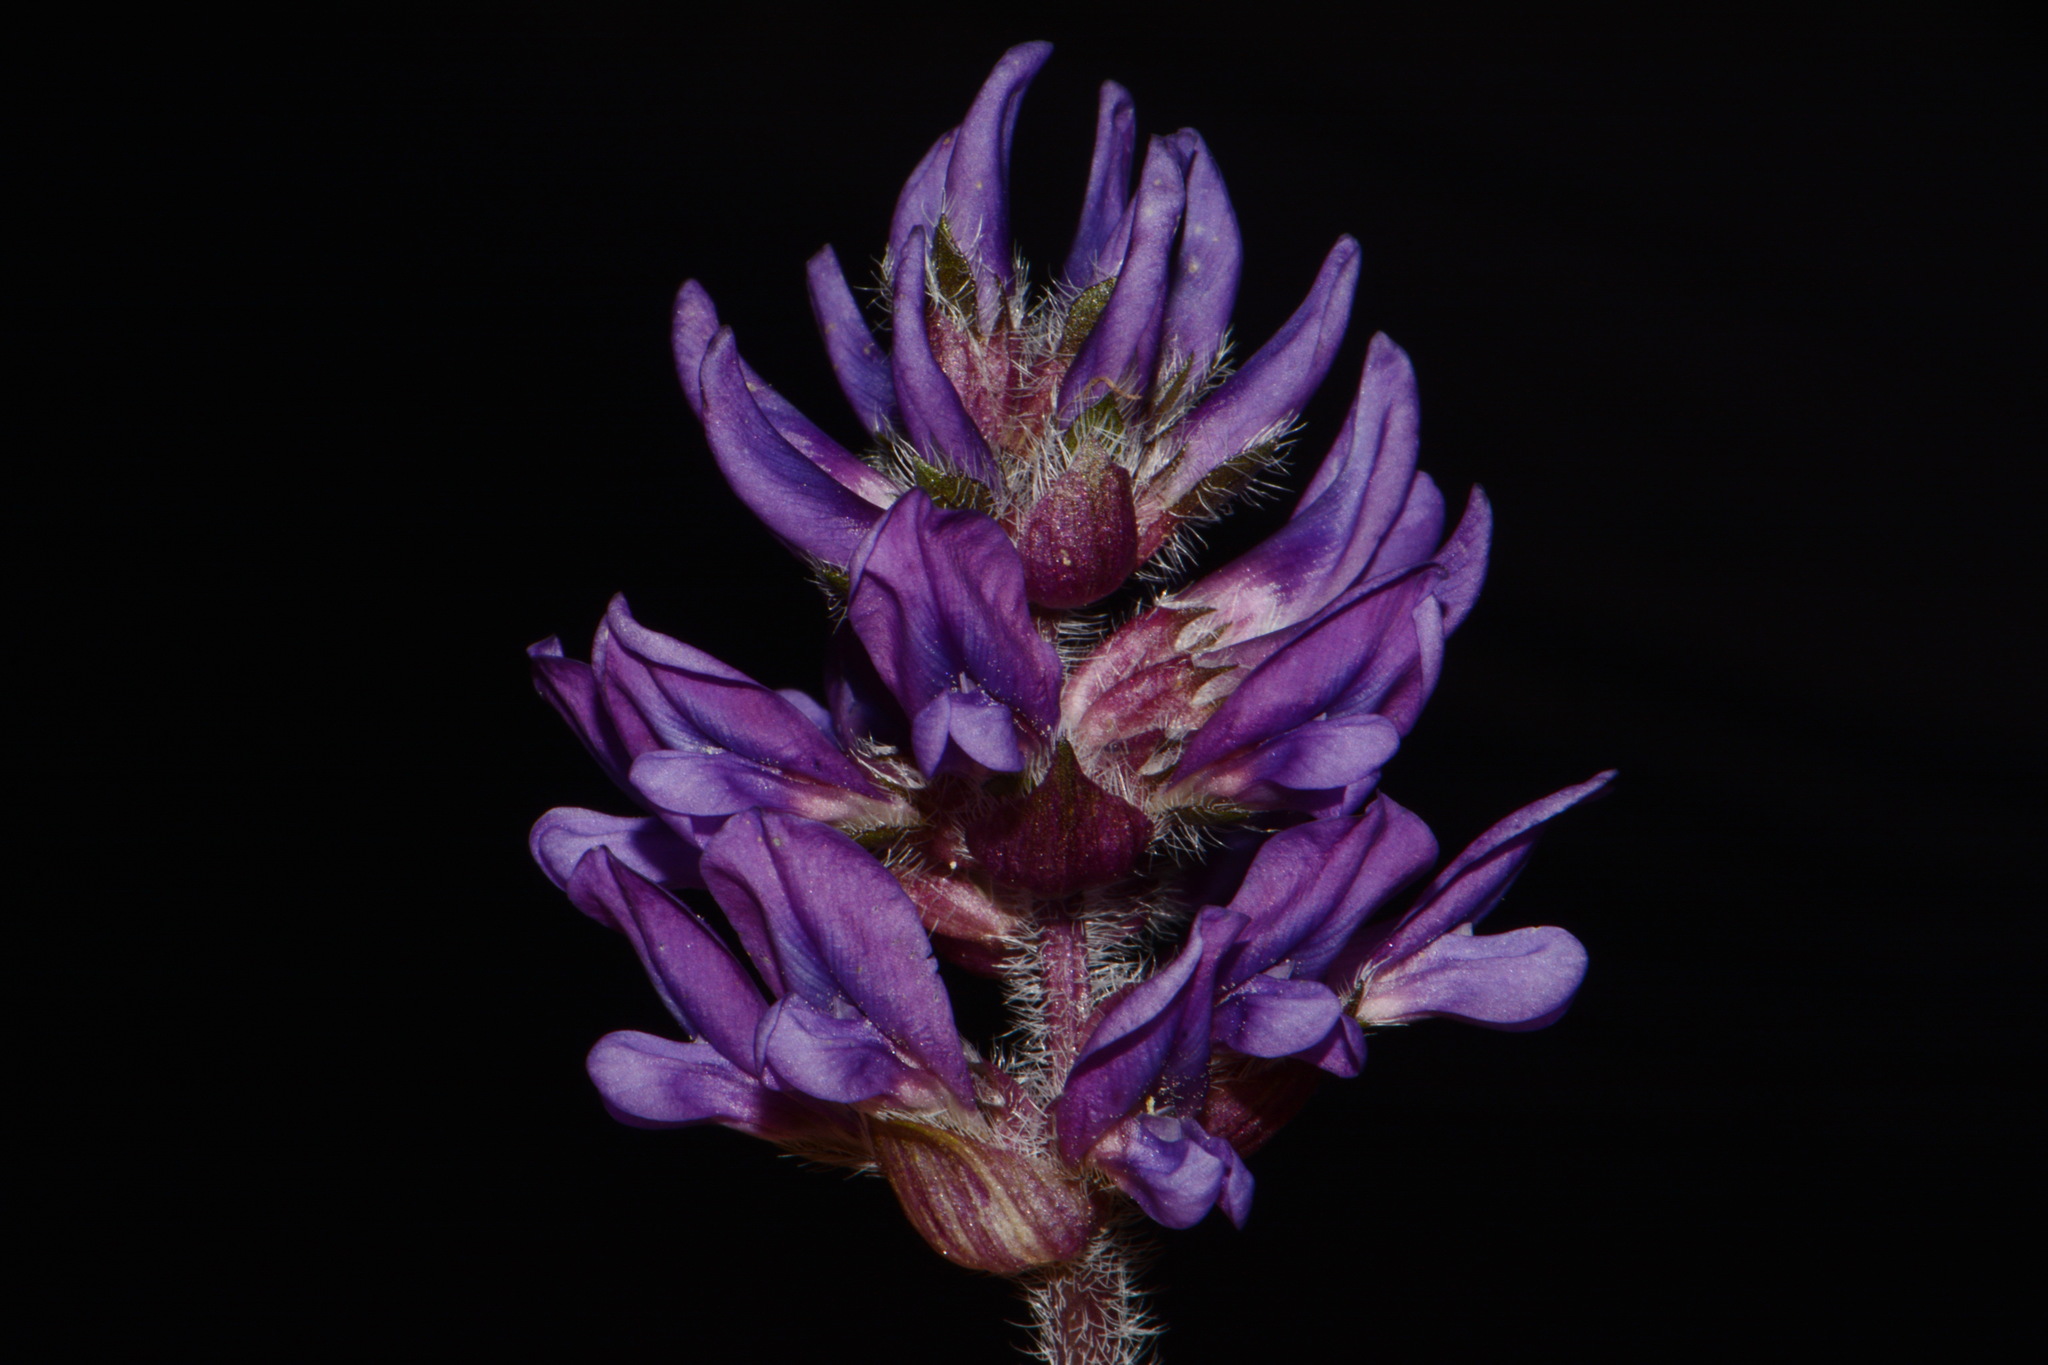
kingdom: Plantae
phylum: Tracheophyta
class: Magnoliopsida
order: Fabales
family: Fabaceae
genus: Pediomelum
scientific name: Pediomelum subacaule
